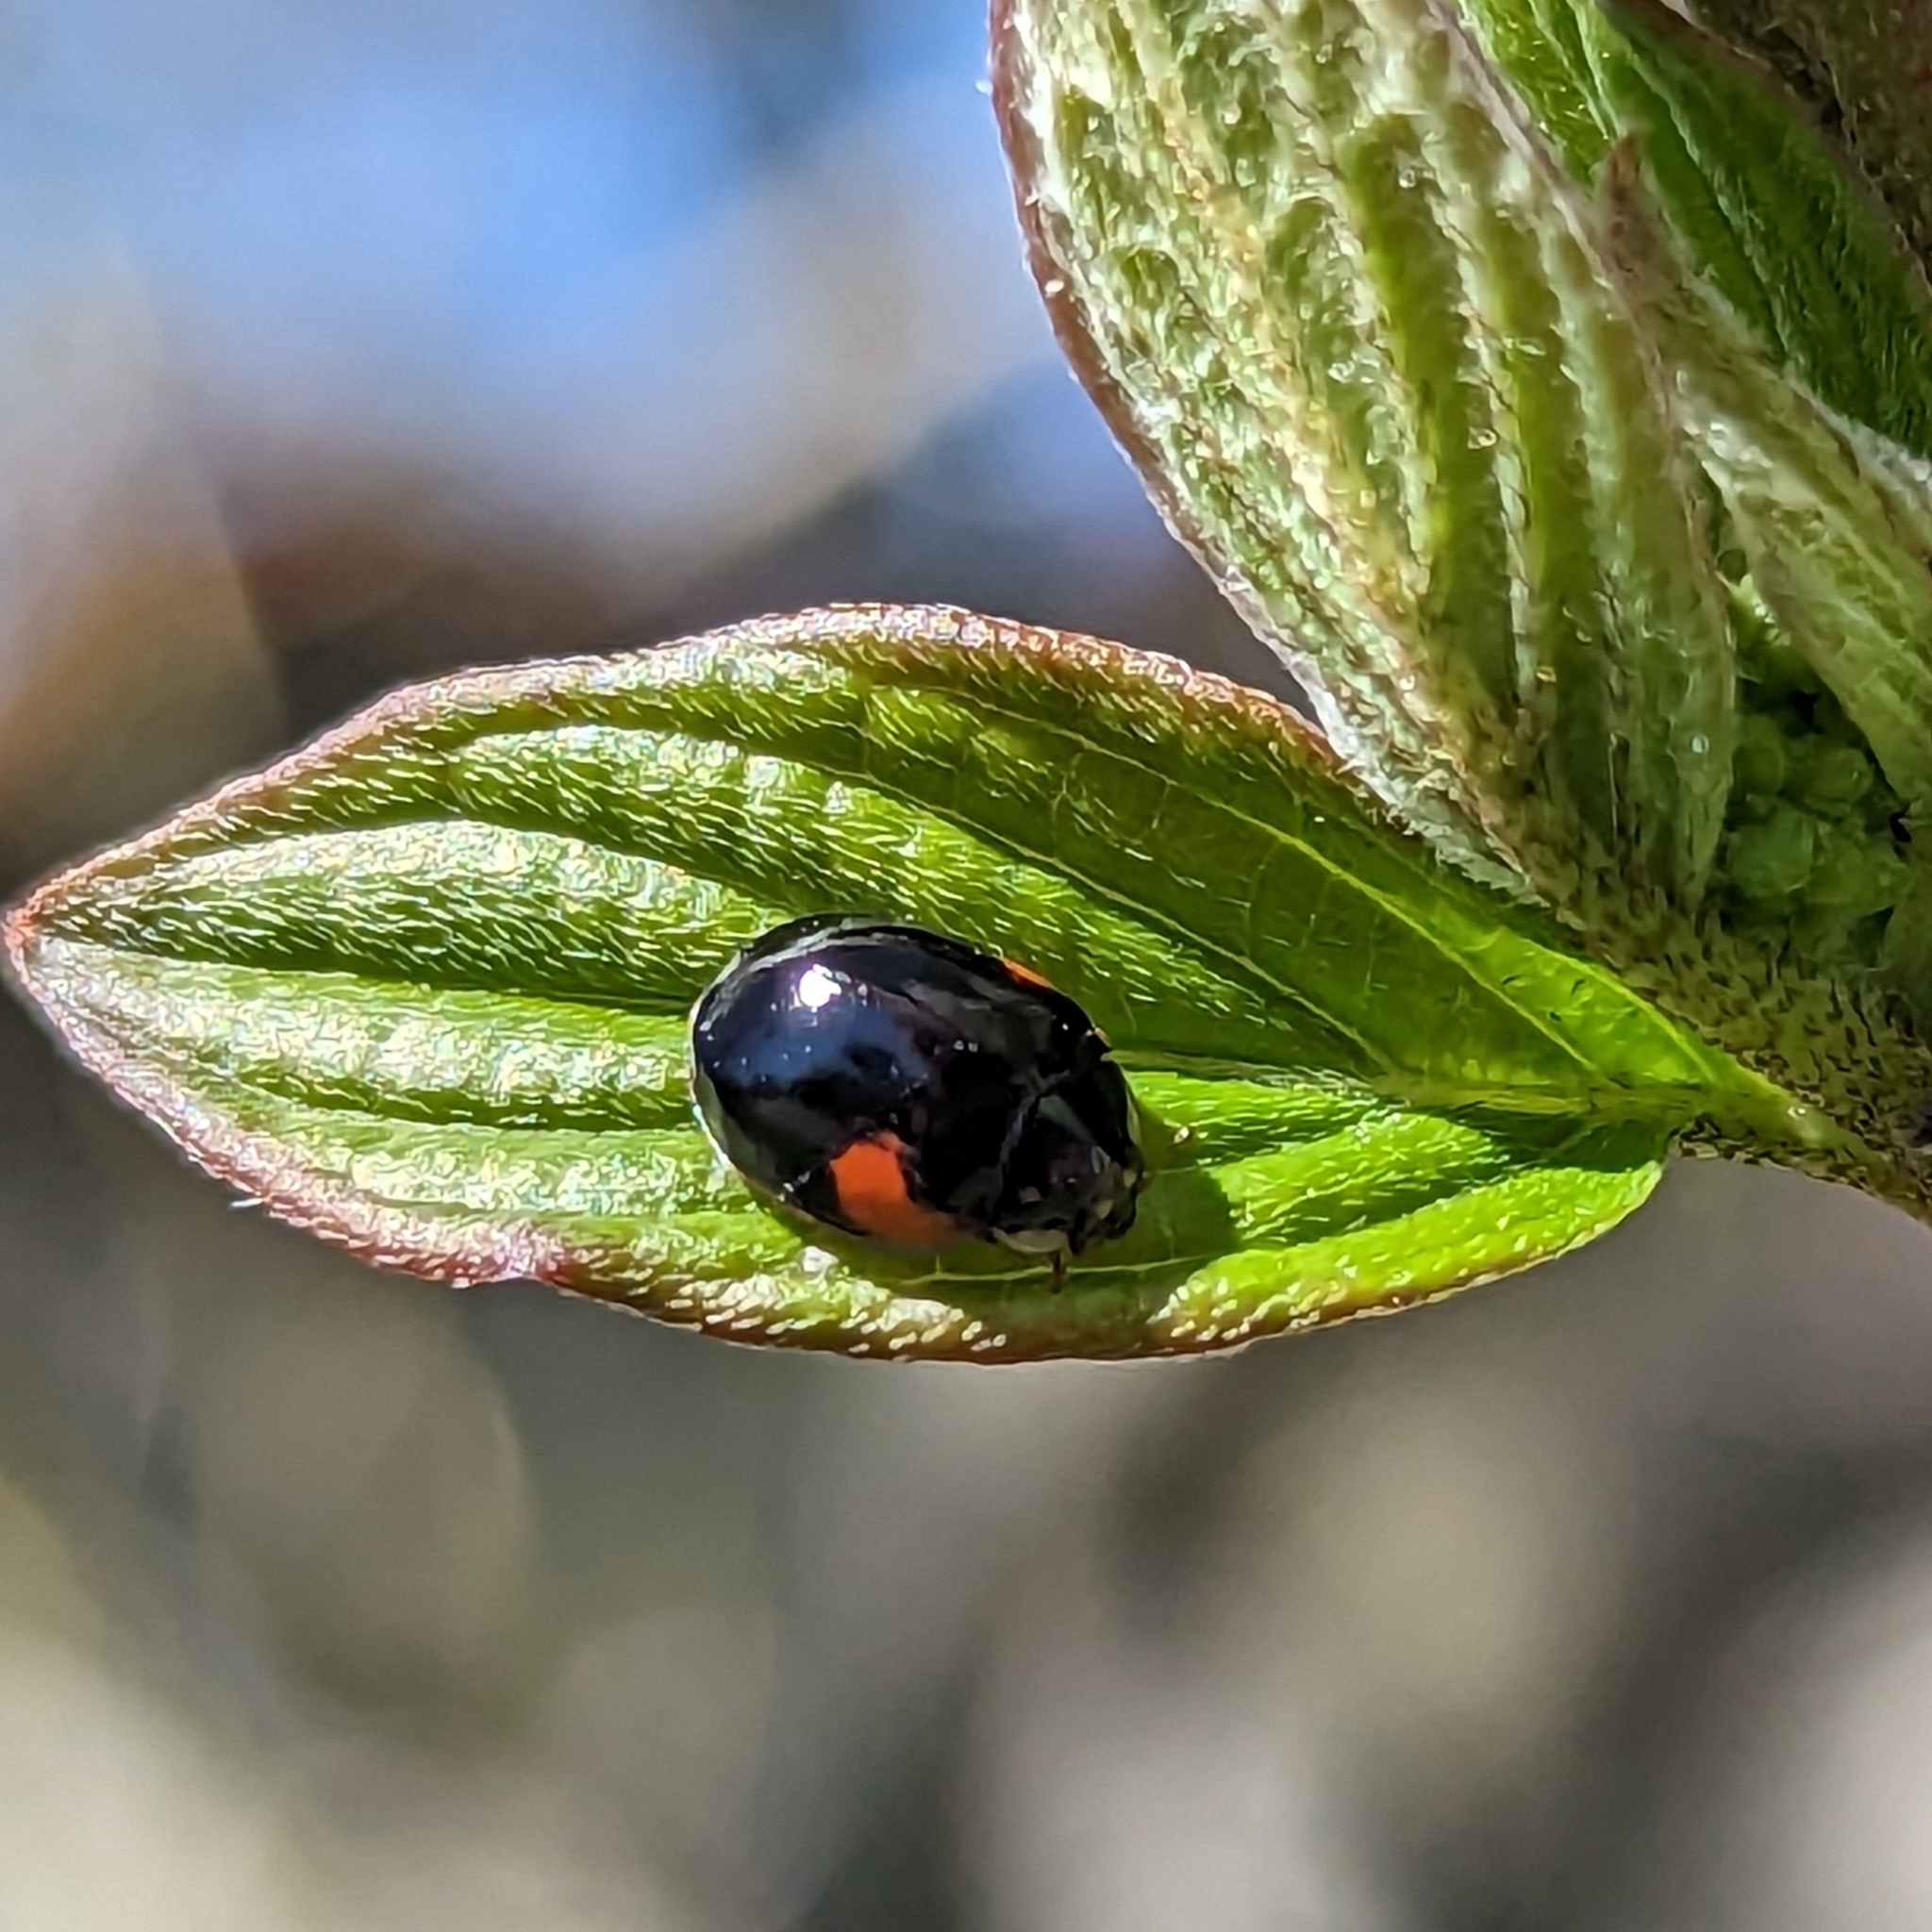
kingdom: Animalia
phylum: Arthropoda
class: Insecta
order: Coleoptera
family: Coccinellidae
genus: Adalia
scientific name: Adalia decempunctata
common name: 10-spot ladybird
